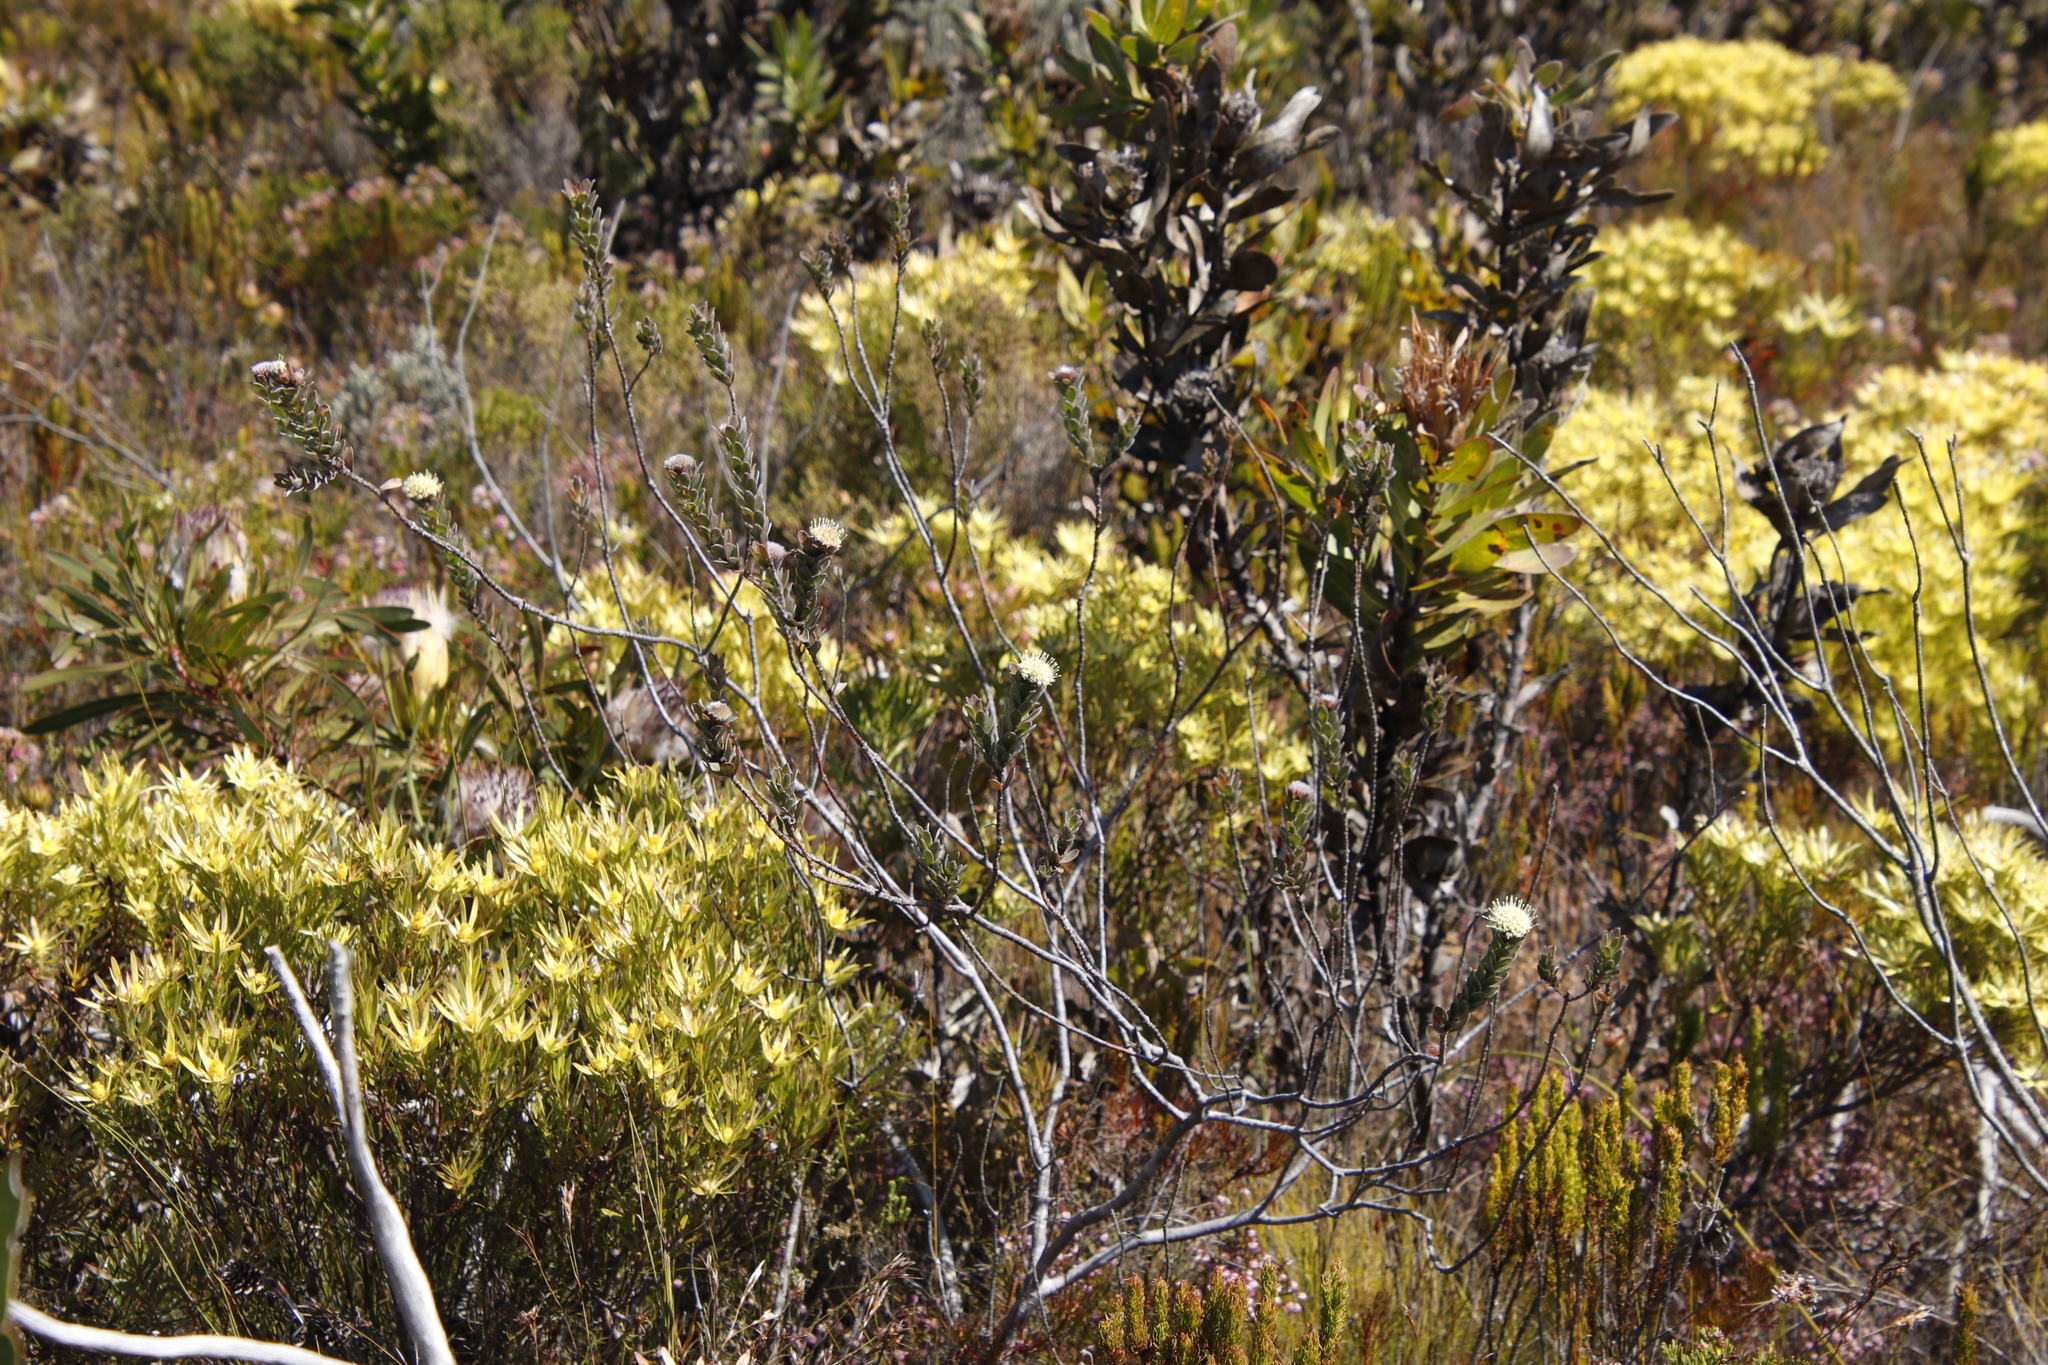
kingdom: Plantae
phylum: Tracheophyta
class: Magnoliopsida
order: Proteales
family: Proteaceae
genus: Leucospermum
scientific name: Leucospermum truncatulum
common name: Oval-leaf pincushion
